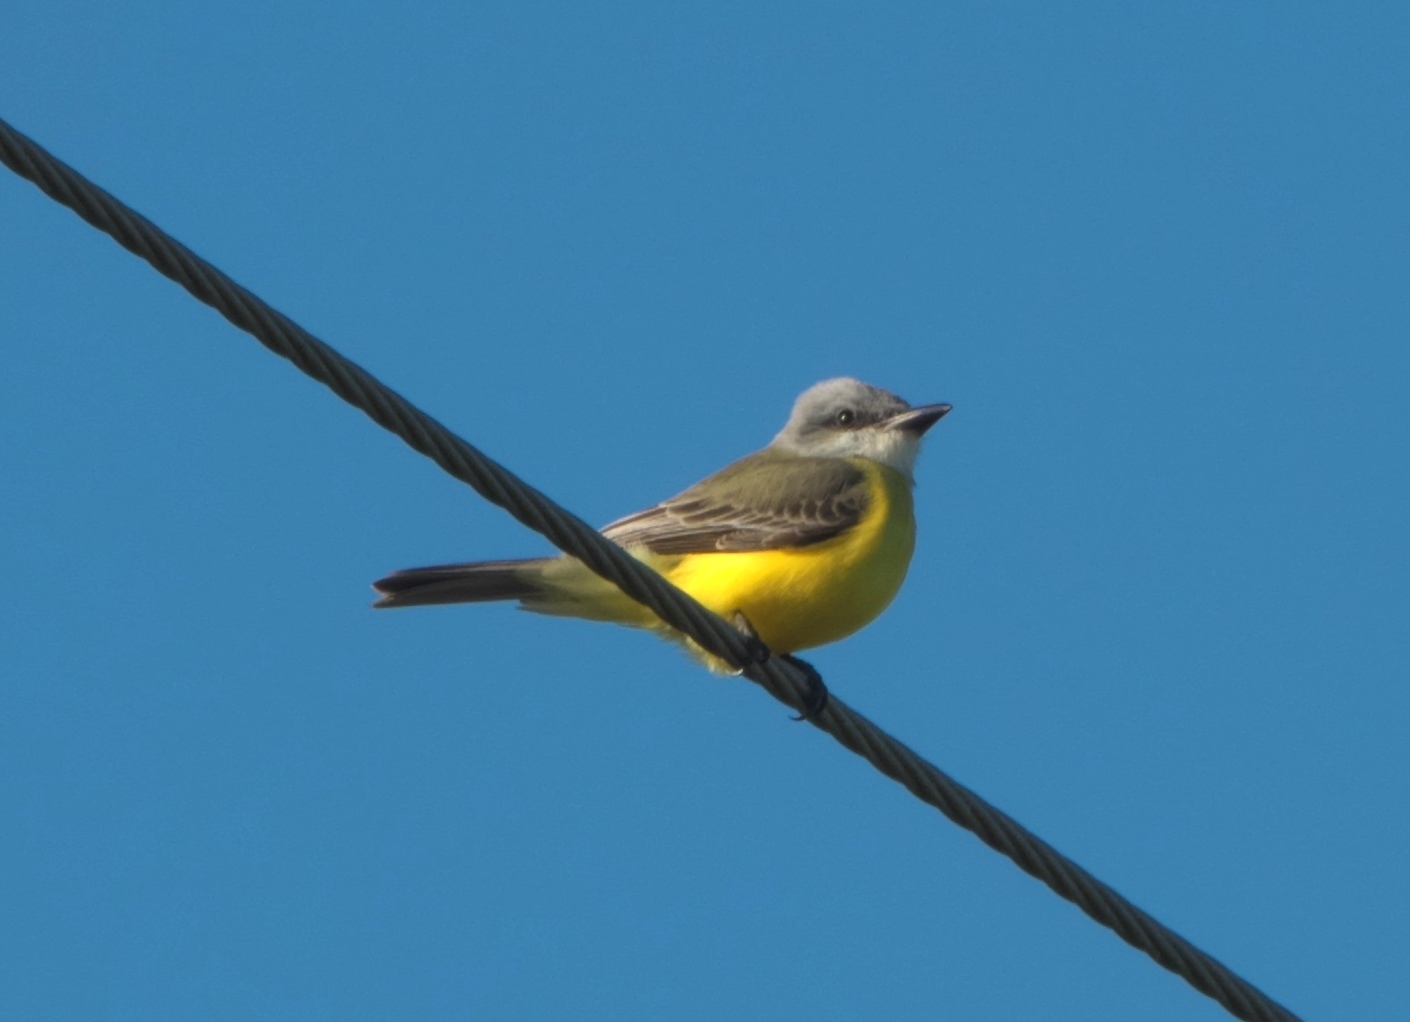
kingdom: Animalia
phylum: Chordata
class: Aves
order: Passeriformes
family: Tyrannidae
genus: Tyrannus
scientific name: Tyrannus
